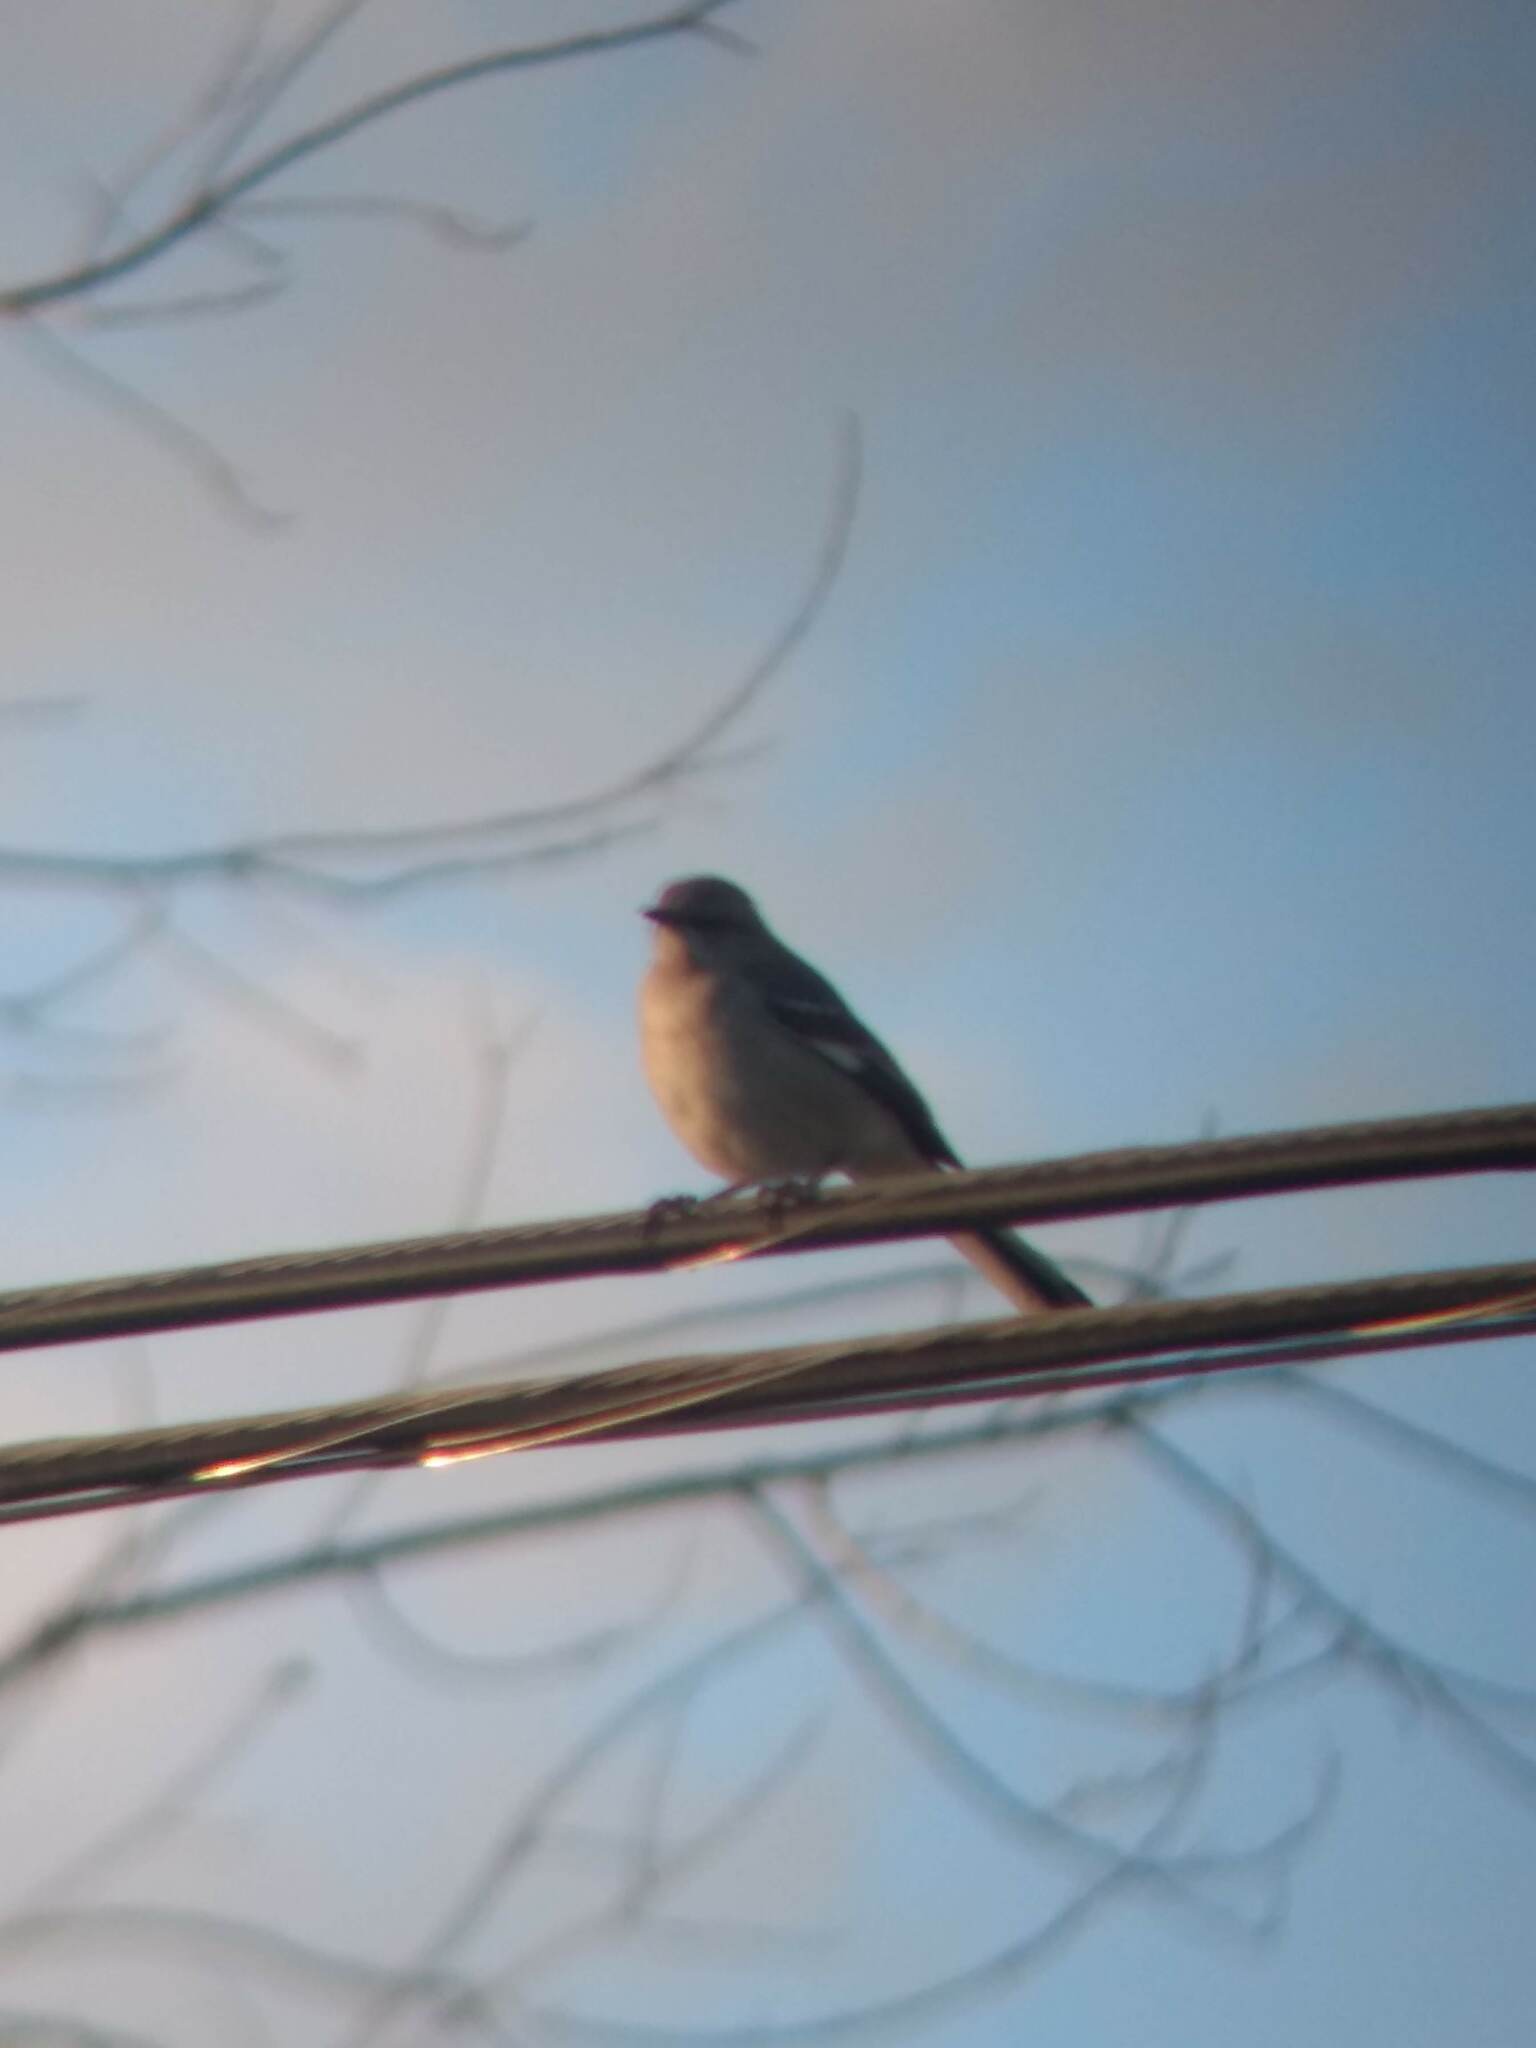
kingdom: Animalia
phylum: Chordata
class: Aves
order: Passeriformes
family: Mimidae
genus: Mimus
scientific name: Mimus polyglottos
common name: Northern mockingbird
